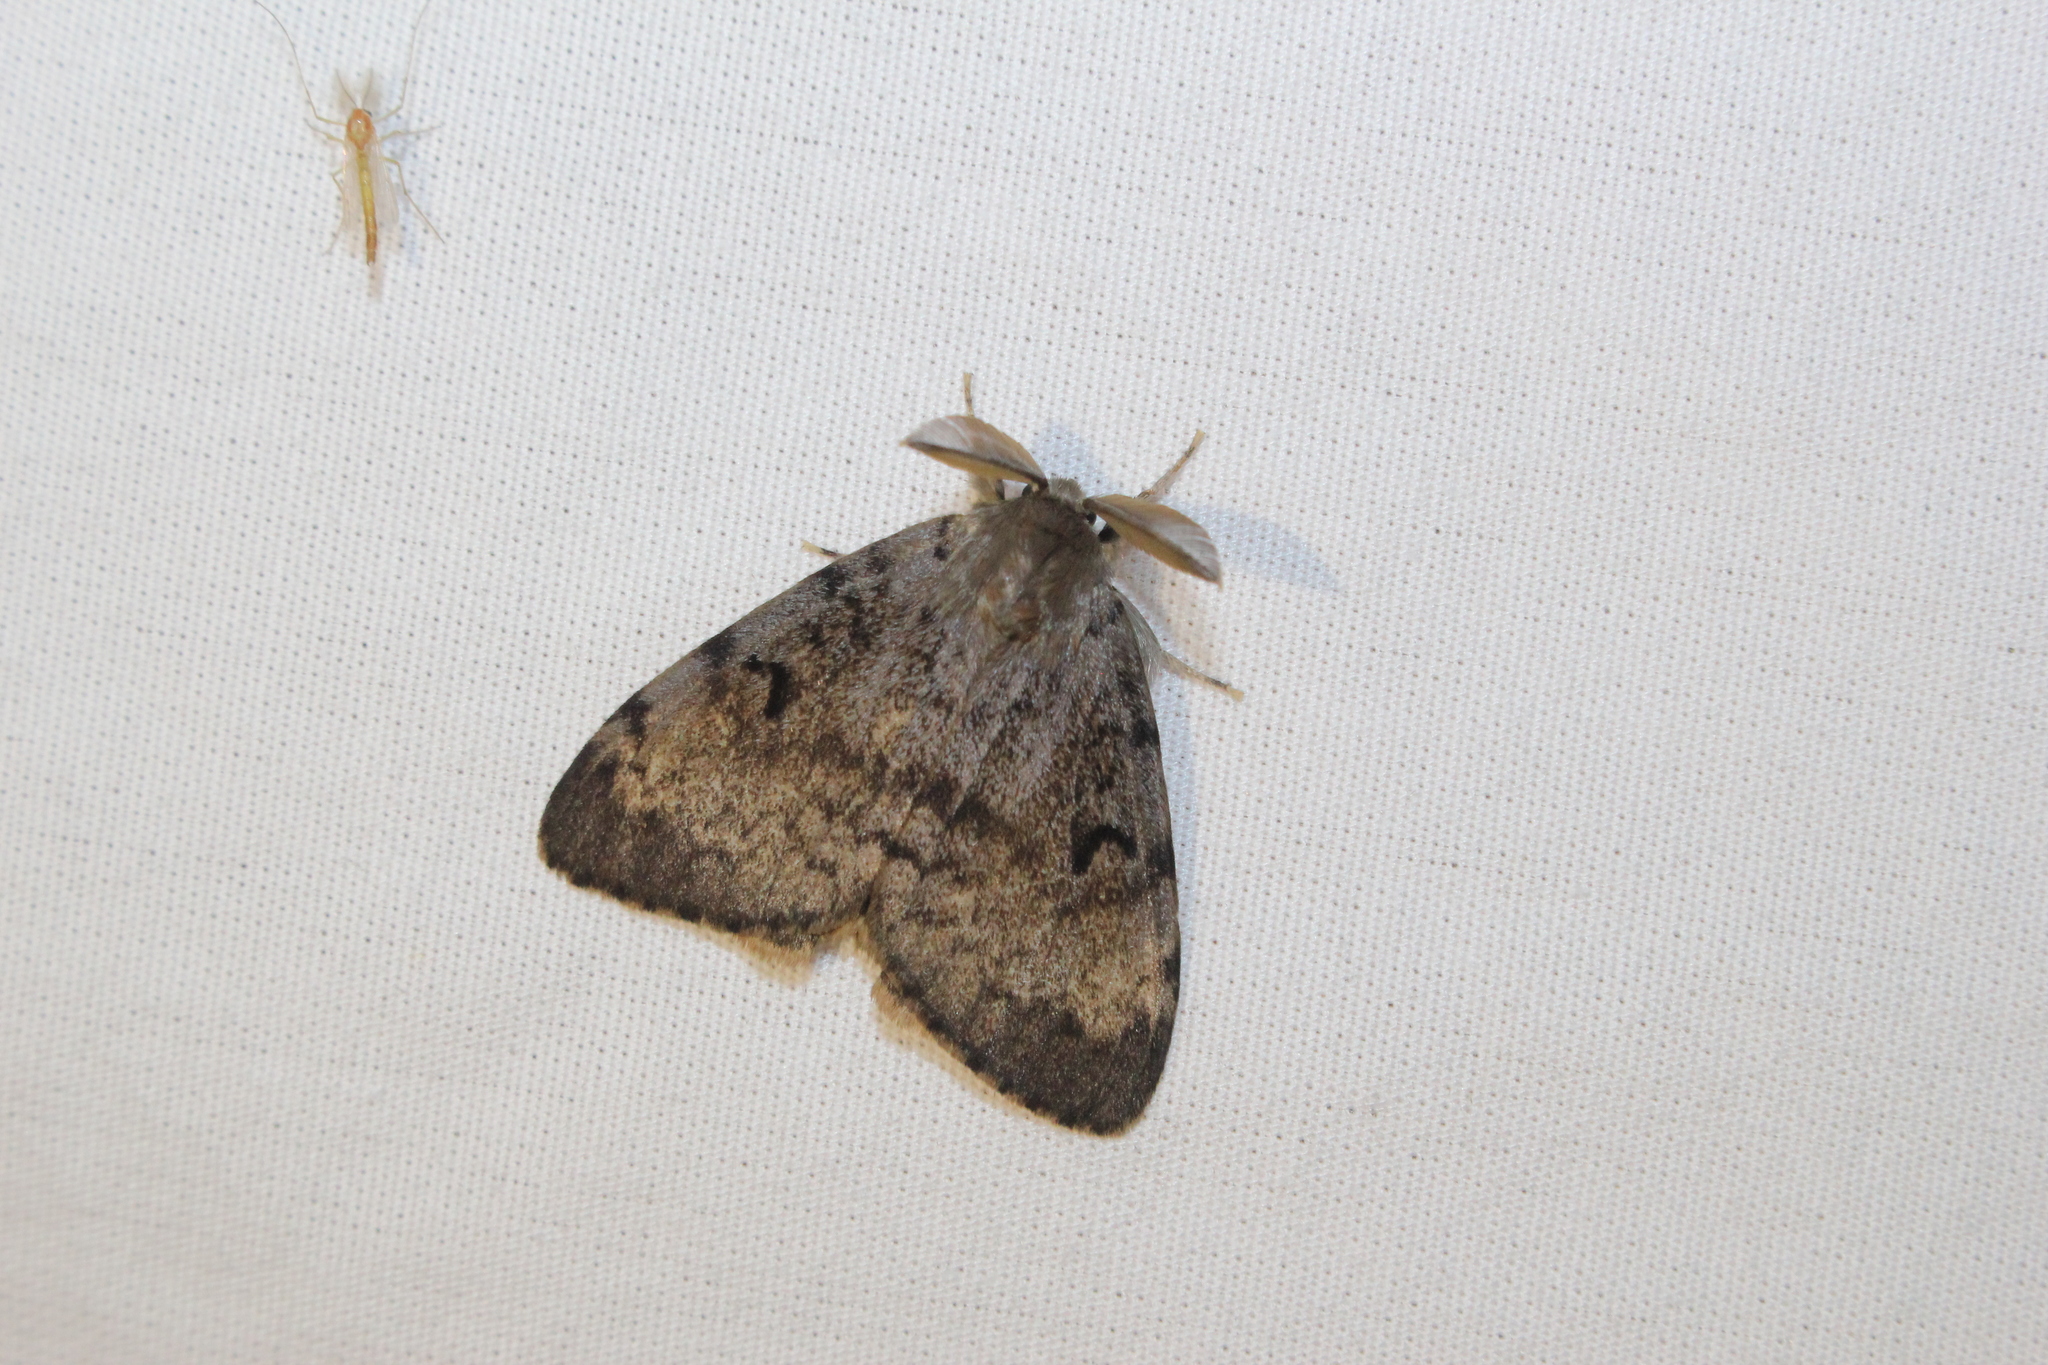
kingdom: Animalia
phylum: Arthropoda
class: Insecta
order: Lepidoptera
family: Erebidae
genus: Lymantria
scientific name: Lymantria dispar
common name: Gypsy moth
